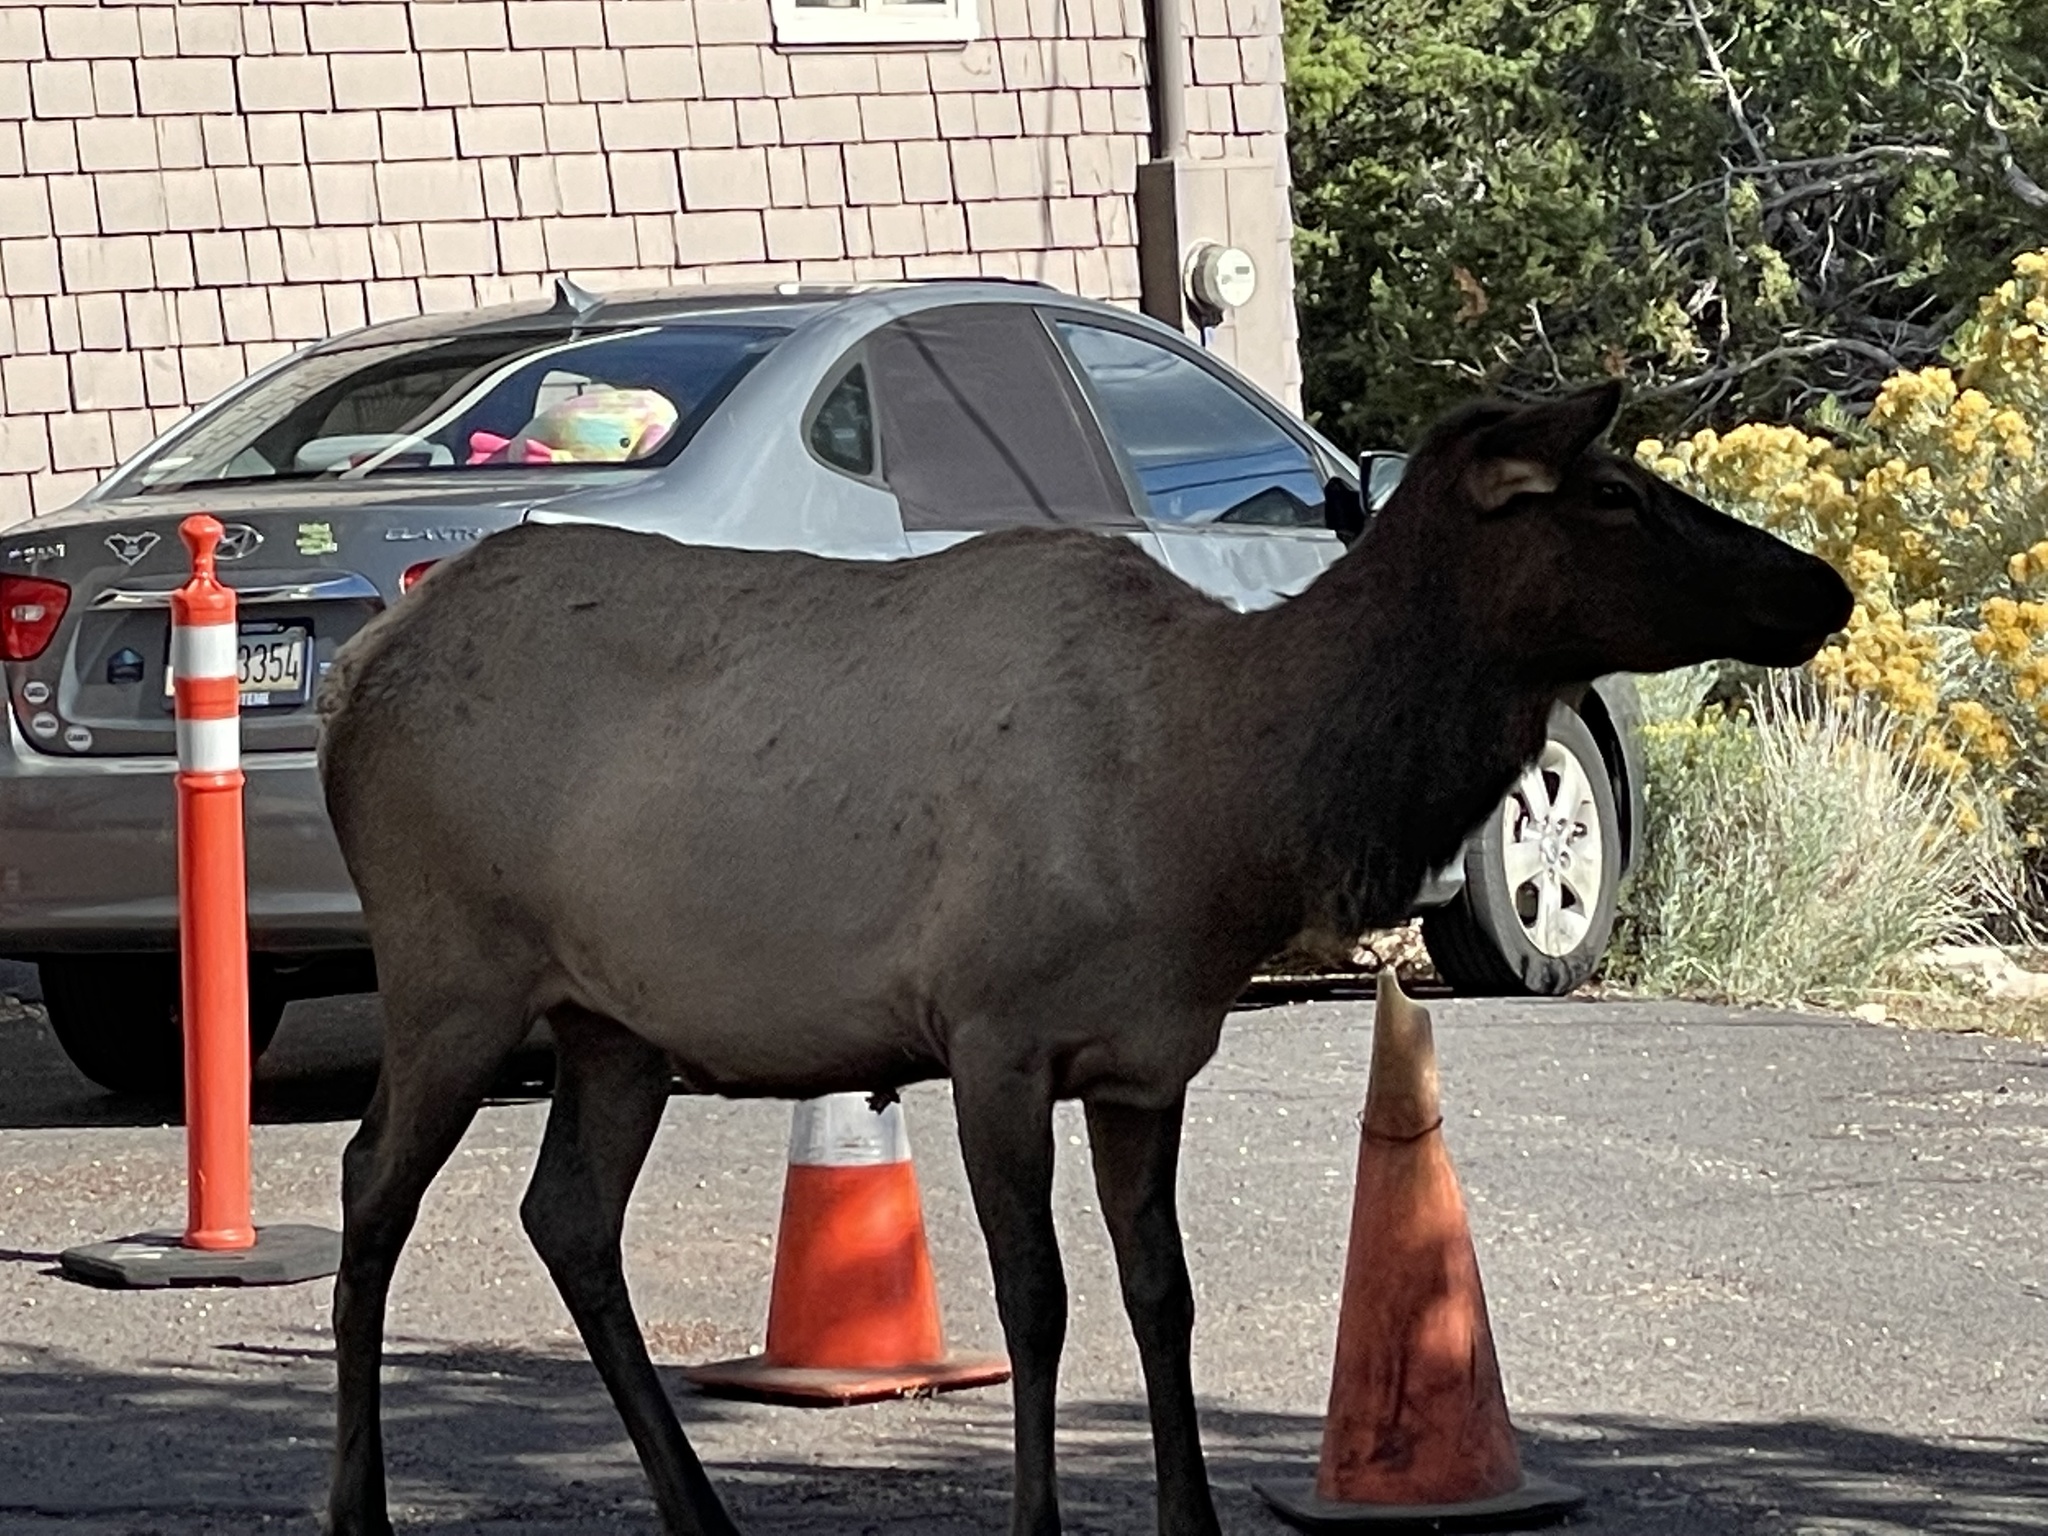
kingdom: Animalia
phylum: Chordata
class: Mammalia
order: Artiodactyla
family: Cervidae
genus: Cervus
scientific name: Cervus elaphus
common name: Red deer
